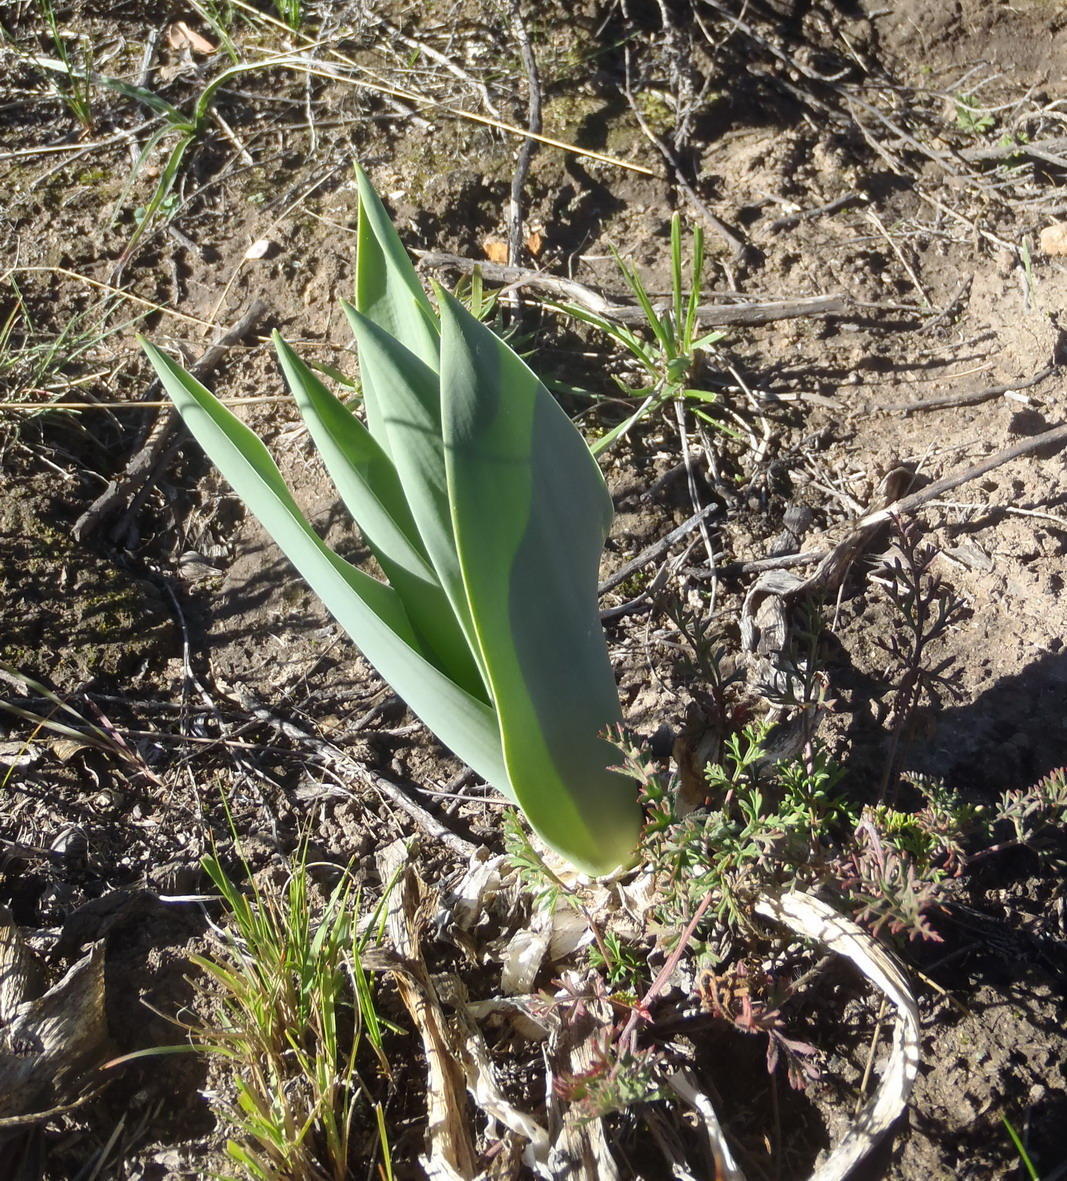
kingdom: Plantae
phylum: Tracheophyta
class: Liliopsida
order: Asparagales
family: Asparagaceae
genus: Drimia
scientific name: Drimia capensis
